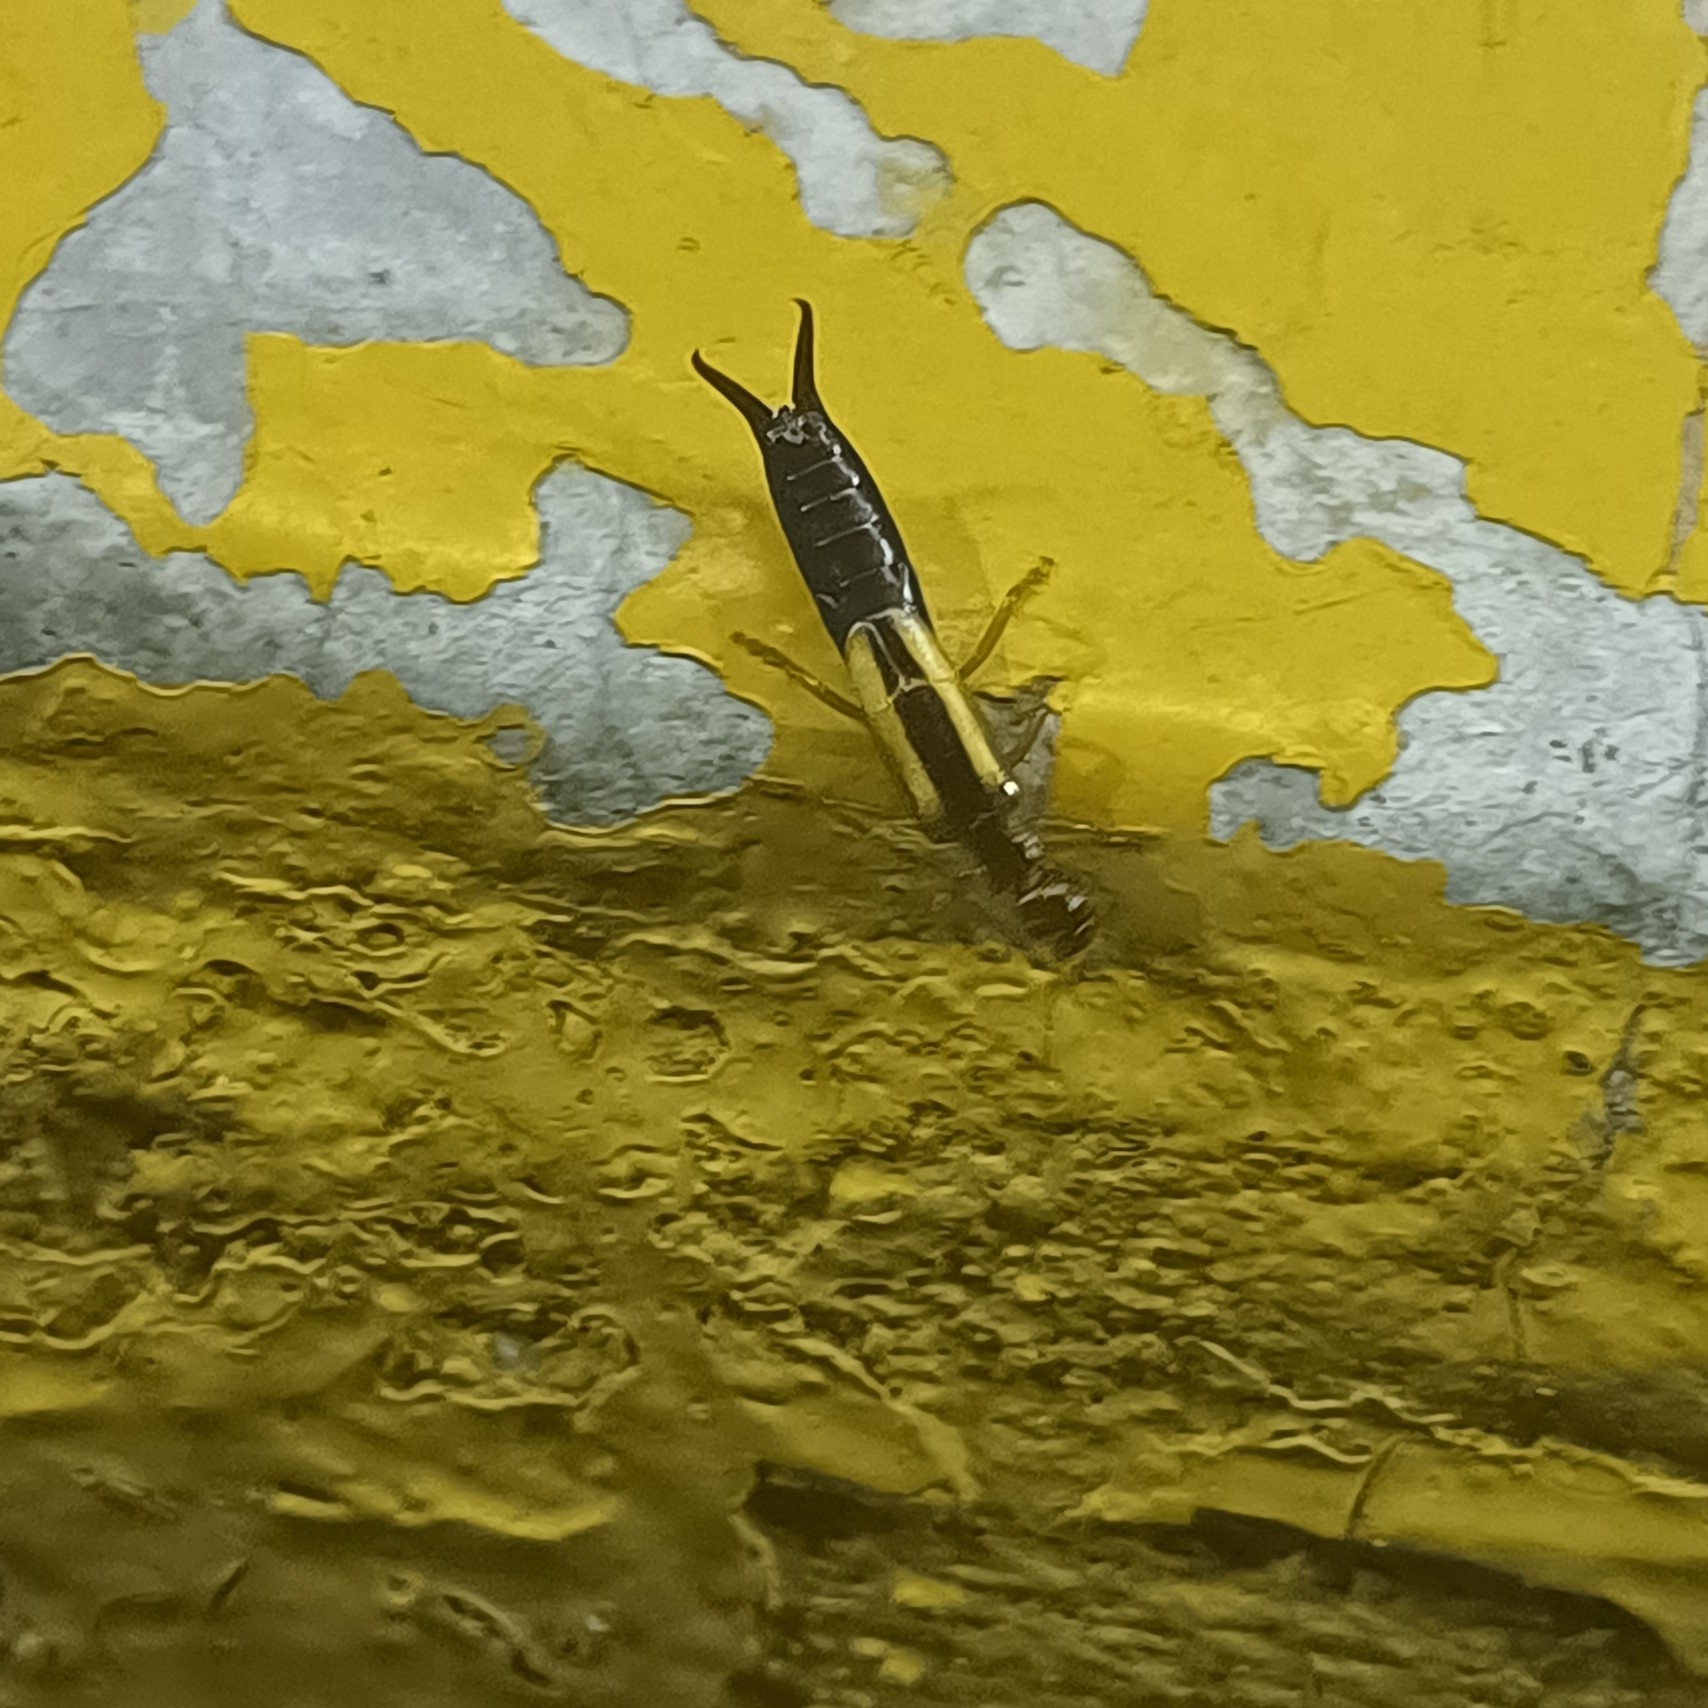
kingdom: Animalia
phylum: Arthropoda
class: Insecta
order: Dermaptera
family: Forficulidae
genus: Doru
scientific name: Doru taeniatum
